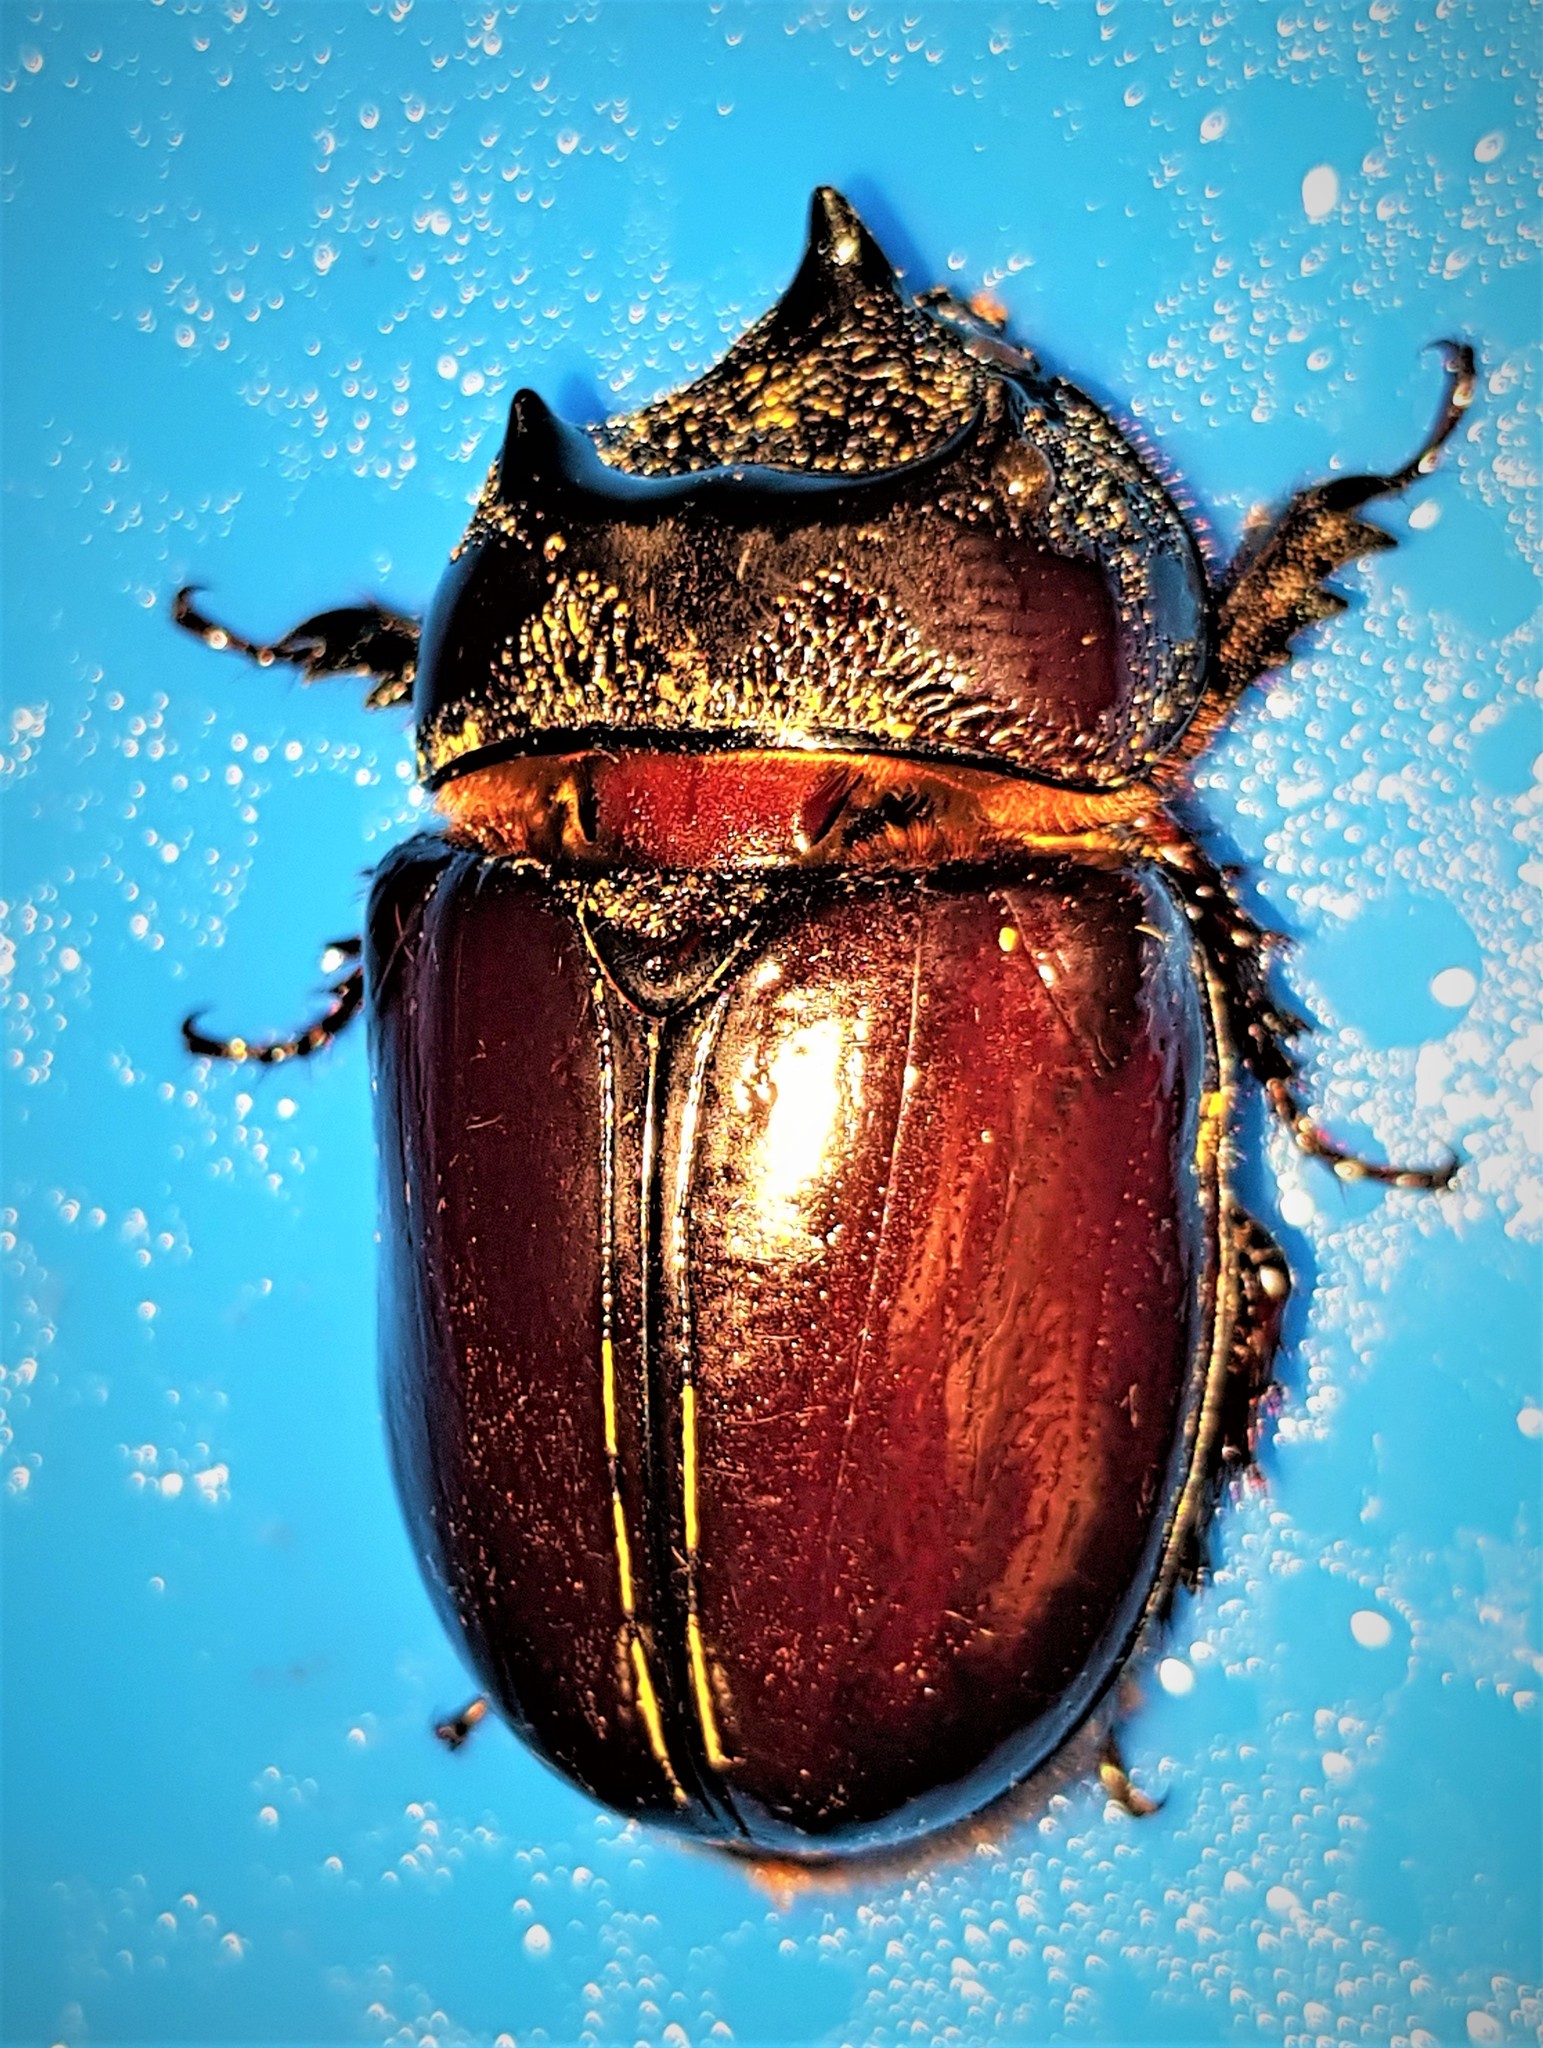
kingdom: Animalia
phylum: Arthropoda
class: Insecta
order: Coleoptera
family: Scarabaeidae
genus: Strategus
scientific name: Strategus aloeus
